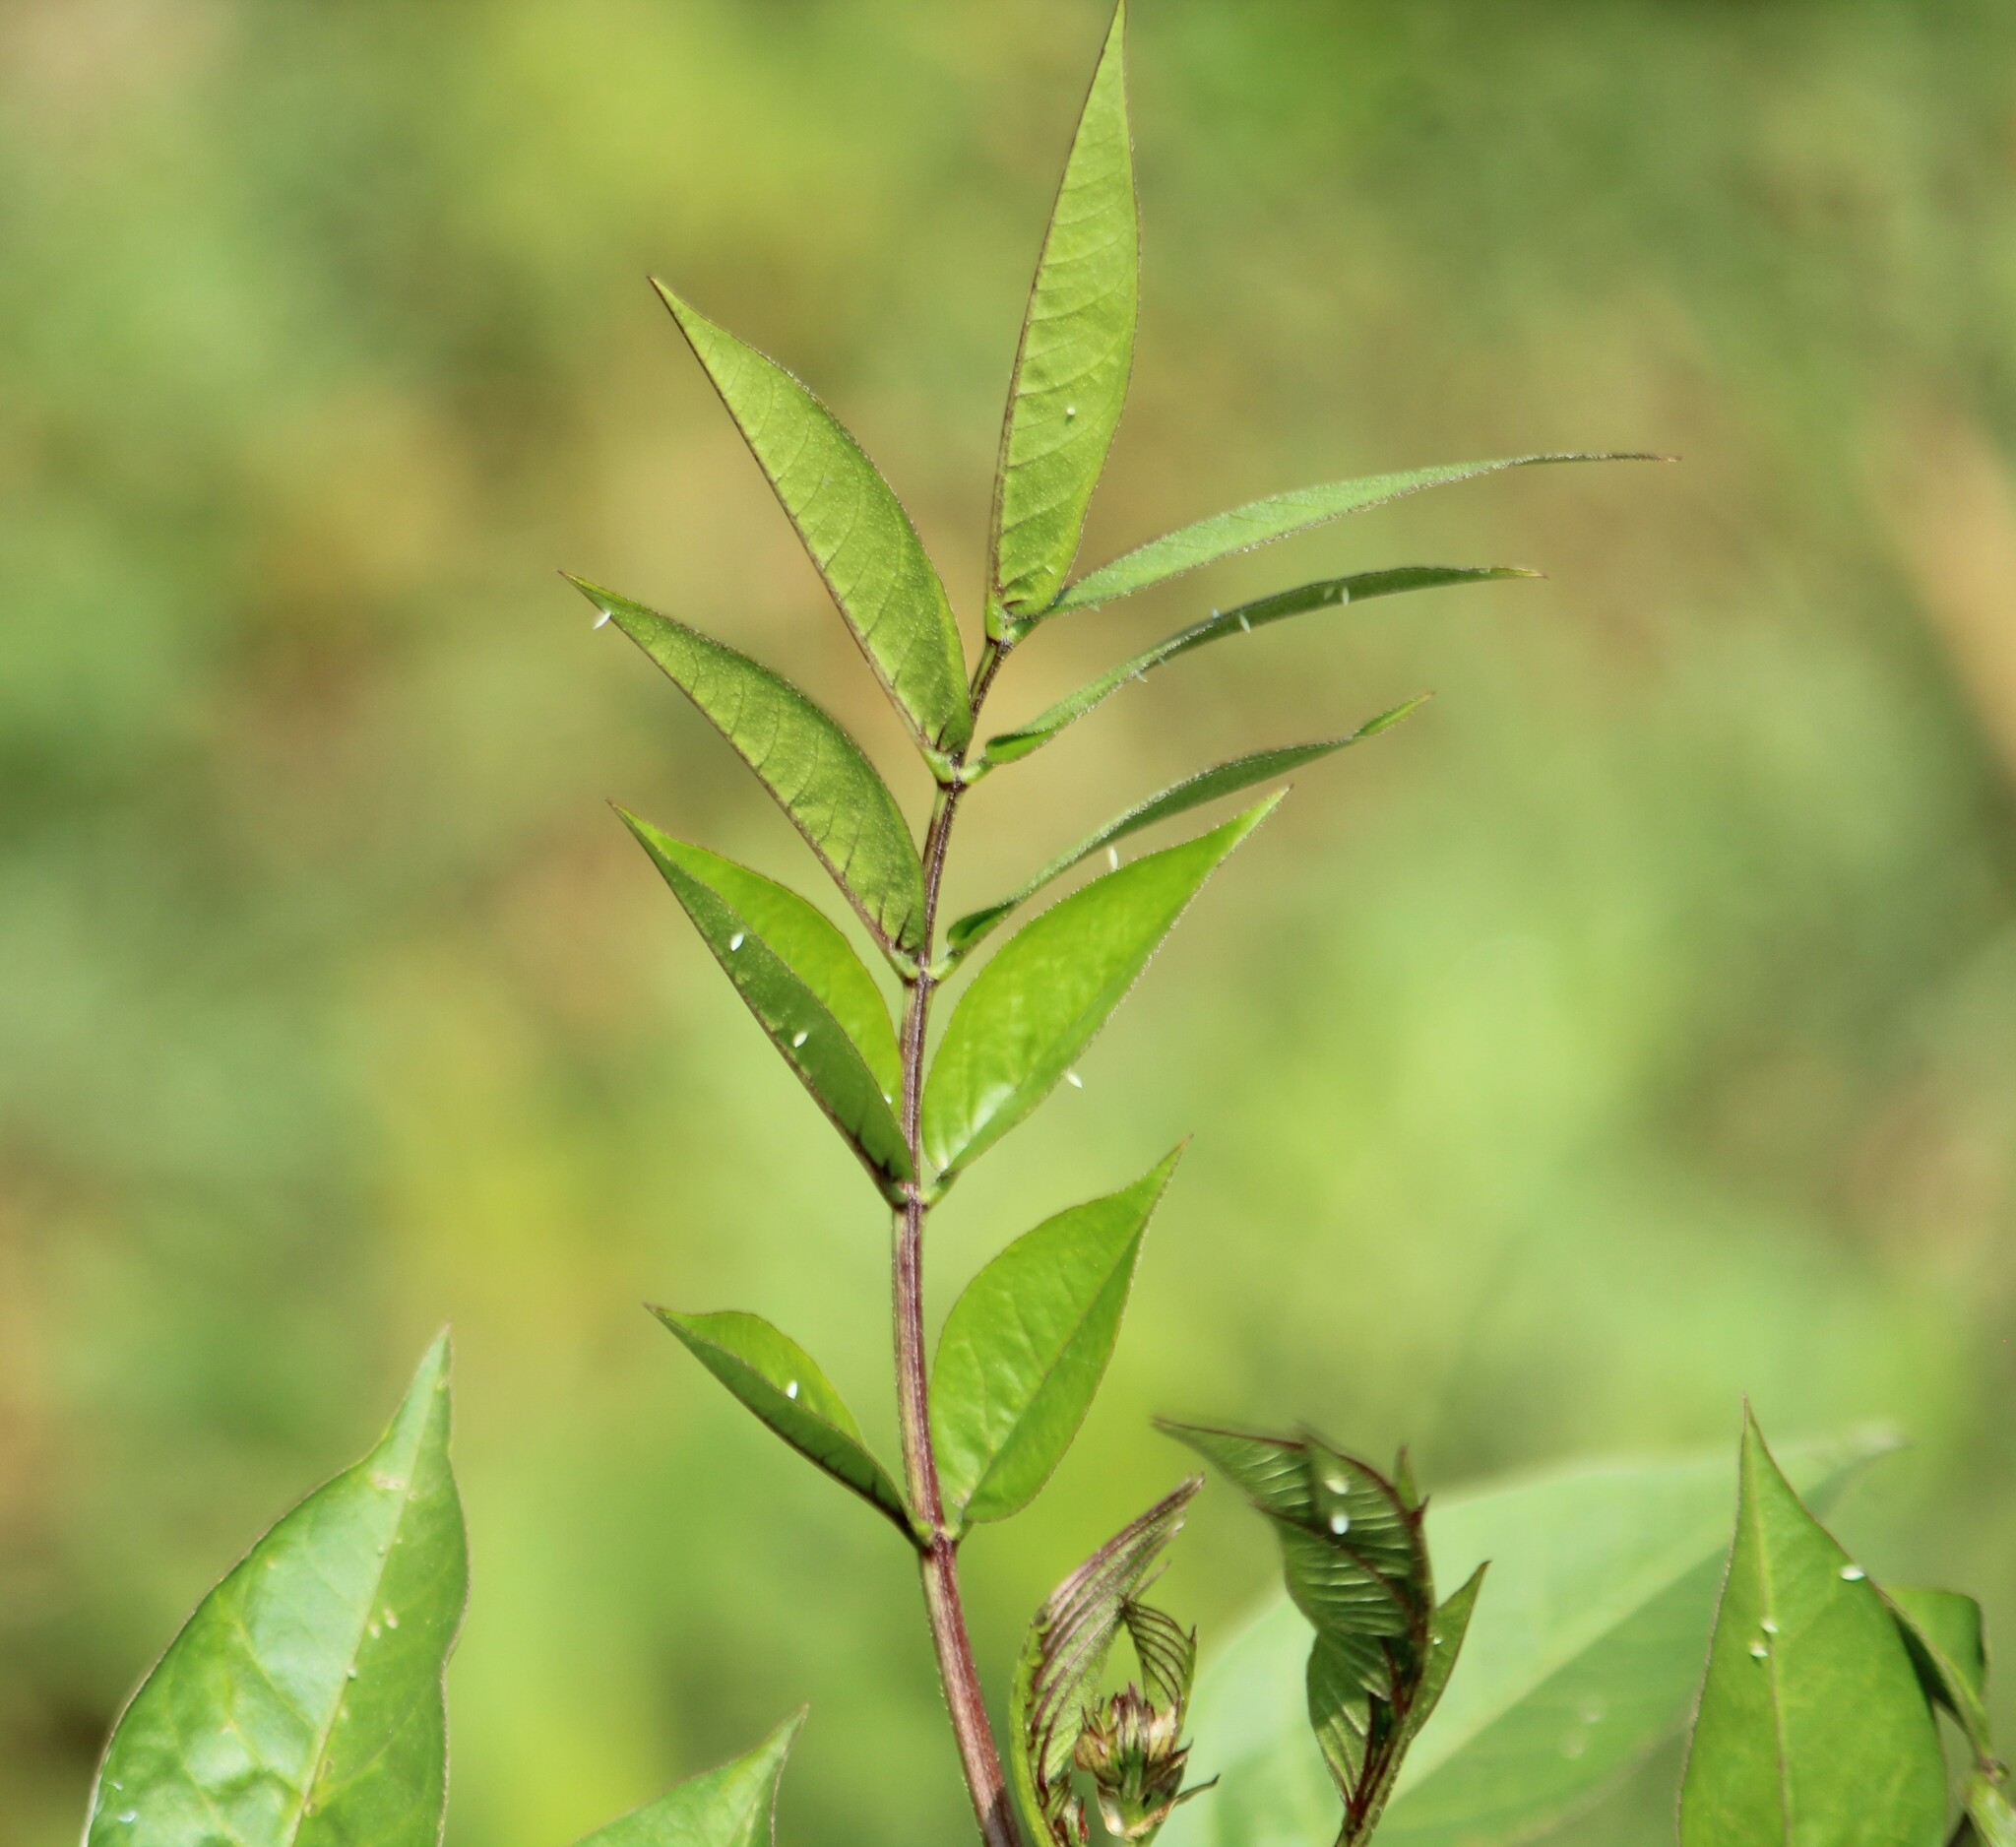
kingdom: Animalia
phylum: Arthropoda
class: Insecta
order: Lepidoptera
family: Pieridae
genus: Catopsilia
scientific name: Catopsilia pyranthe
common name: Mottled emigrant
